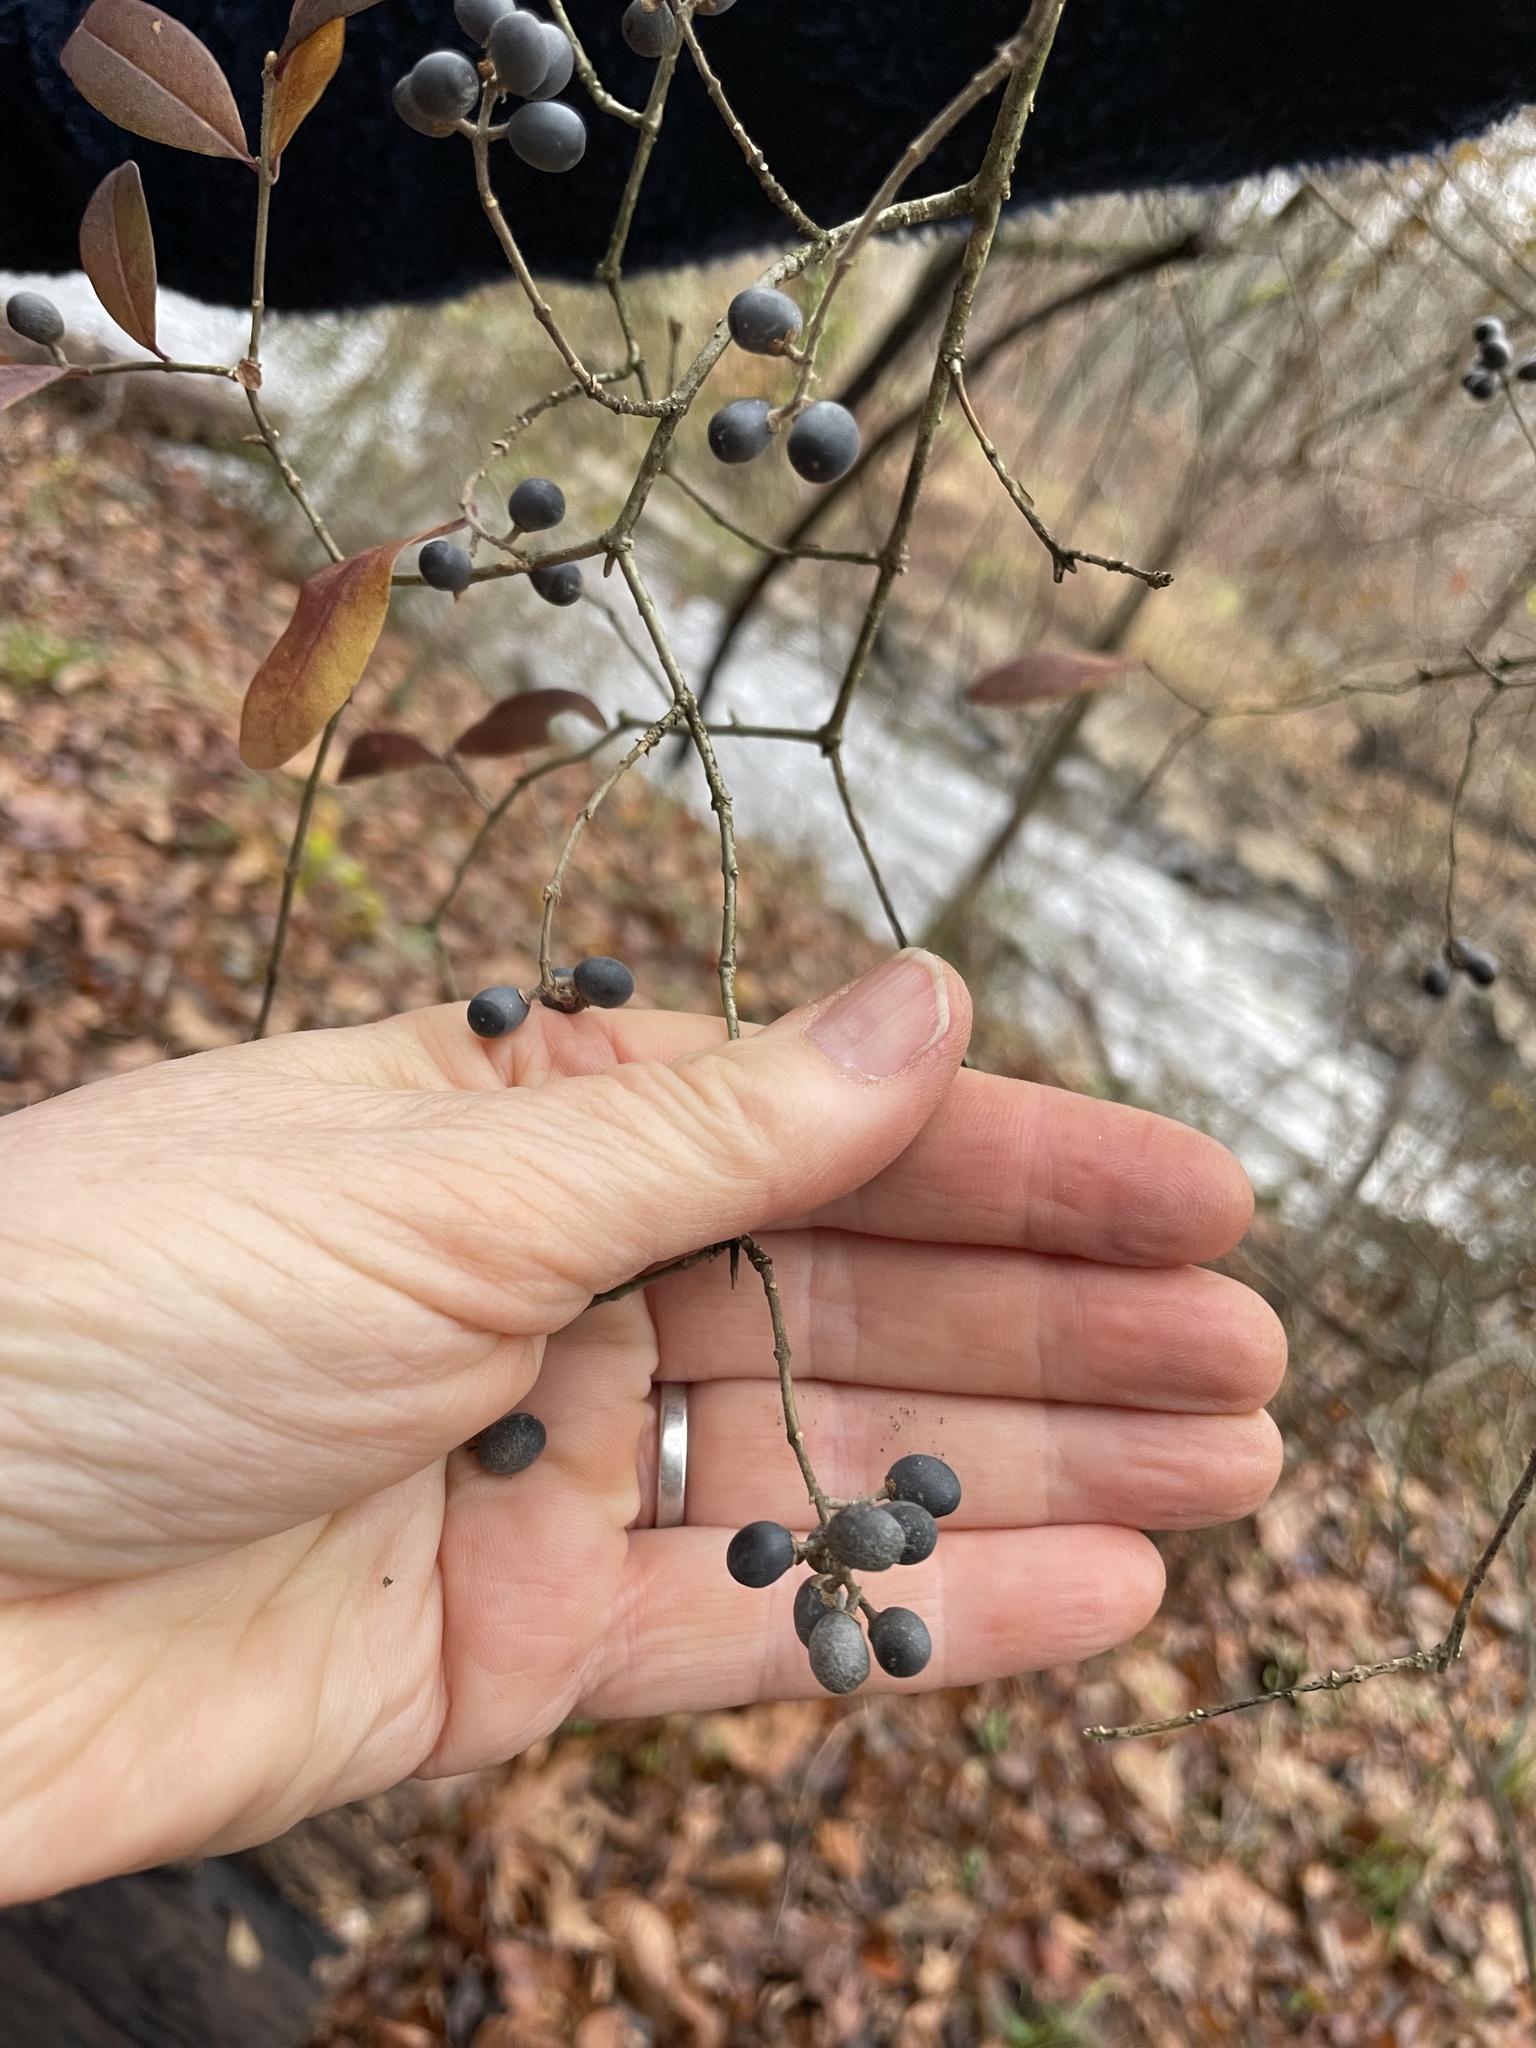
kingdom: Plantae
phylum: Tracheophyta
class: Magnoliopsida
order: Lamiales
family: Oleaceae
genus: Ligustrum
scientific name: Ligustrum obtusifolium
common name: Border privet
